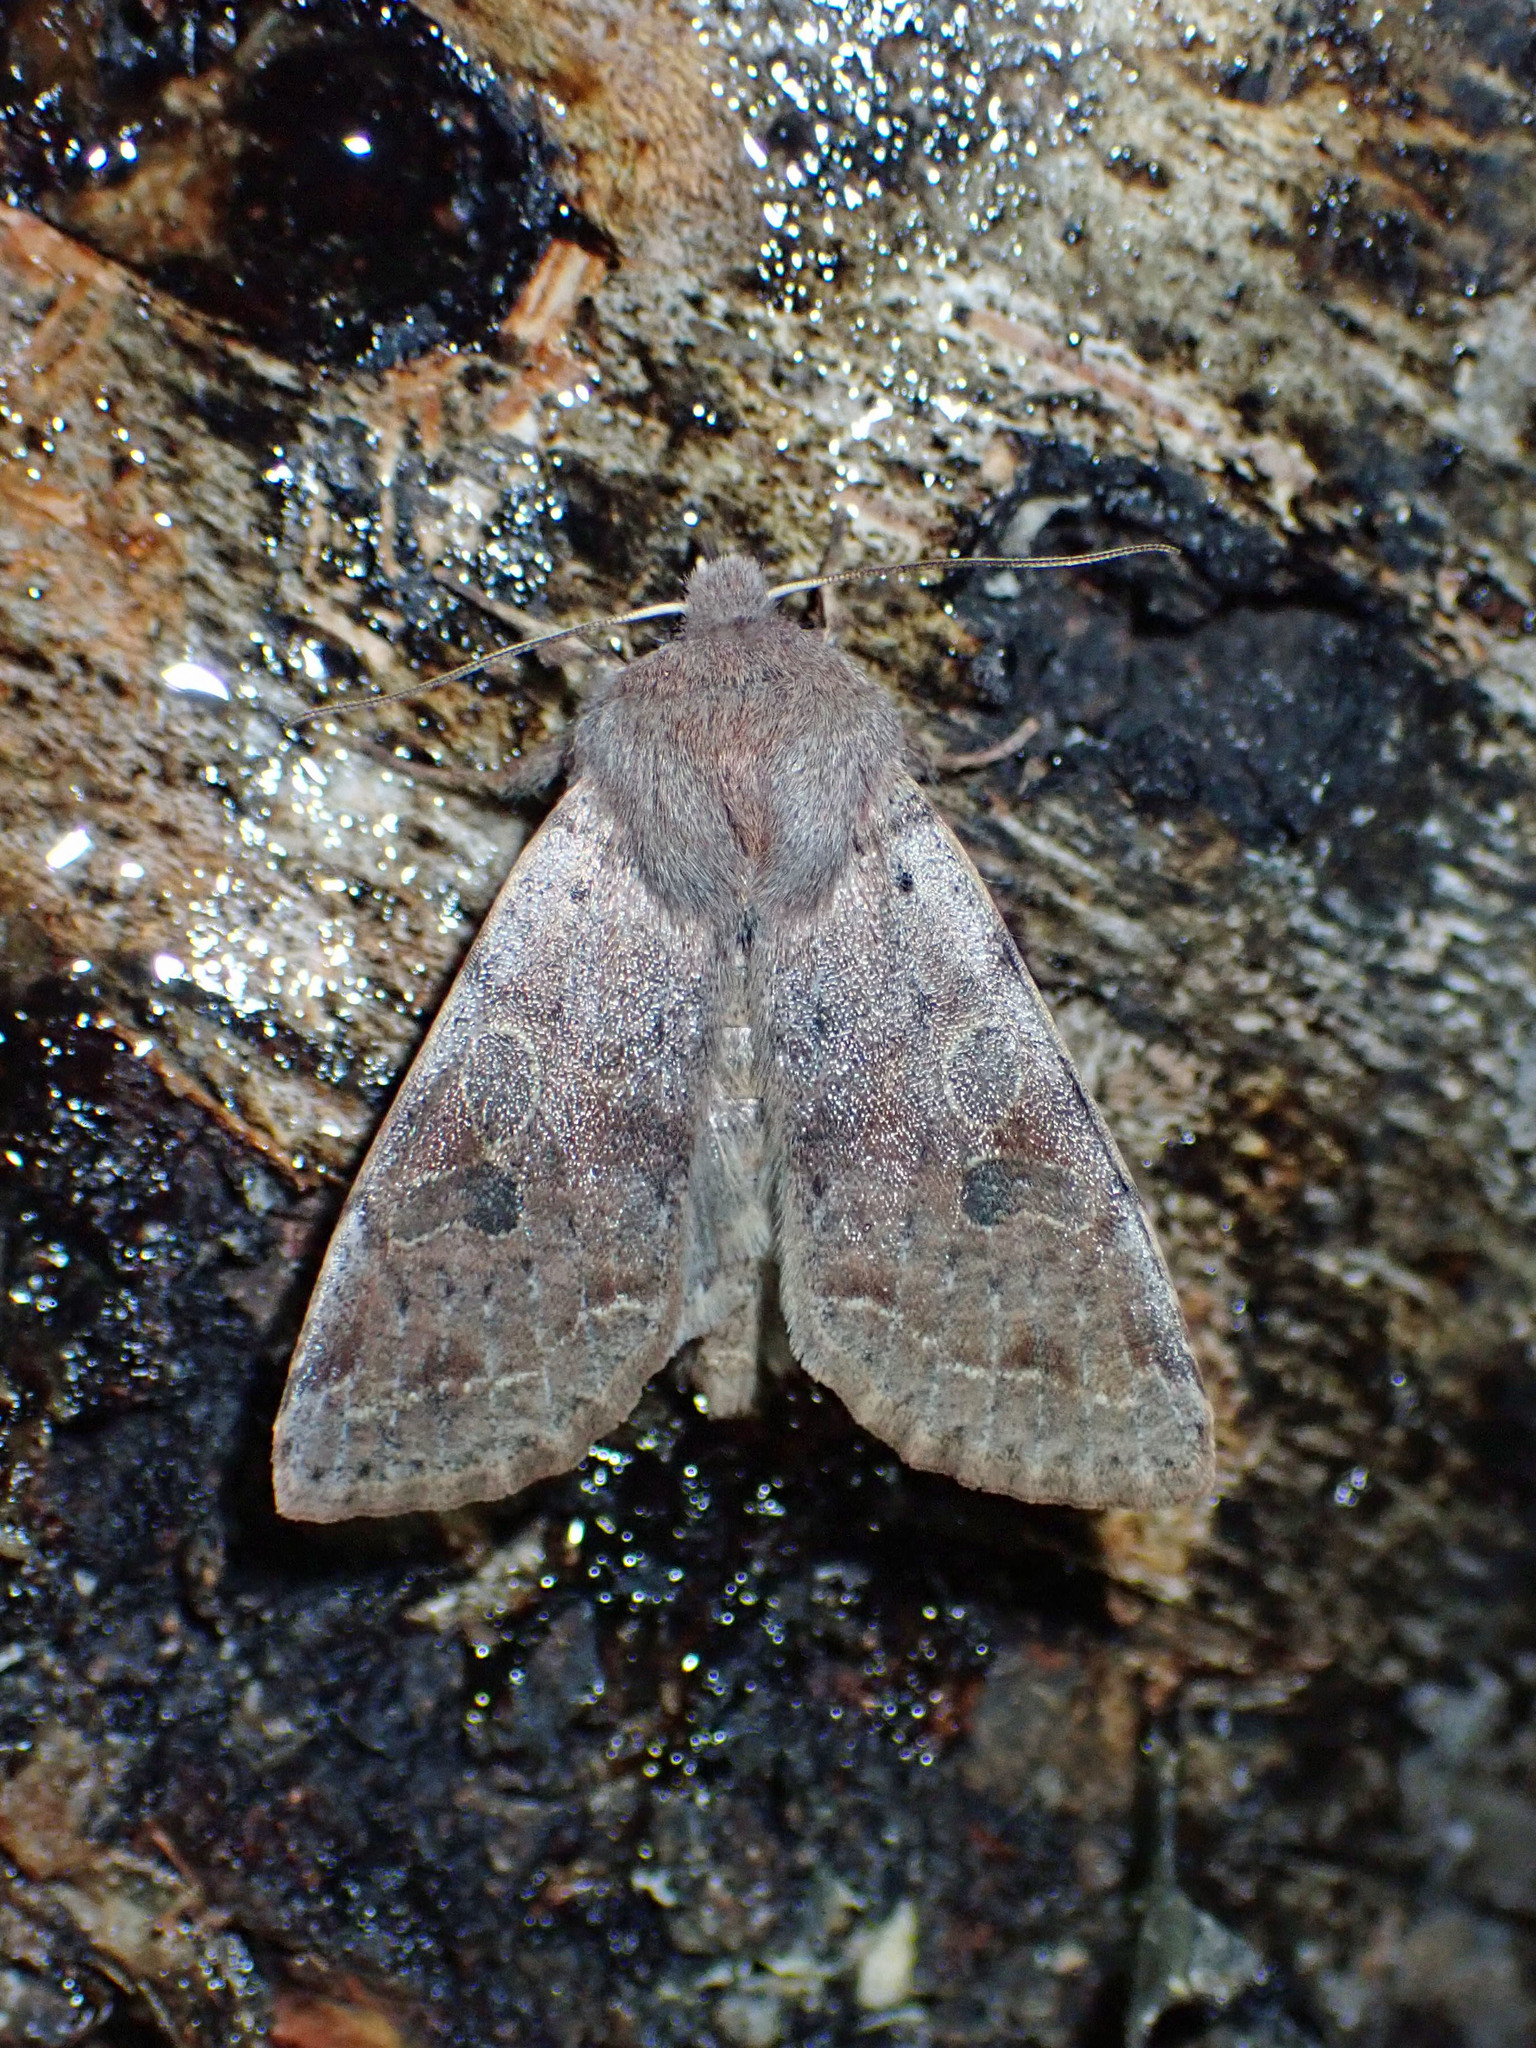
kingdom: Animalia
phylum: Arthropoda
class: Insecta
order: Lepidoptera
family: Noctuidae
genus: Orthosia
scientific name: Orthosia hibisci
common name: Green fruitworm
